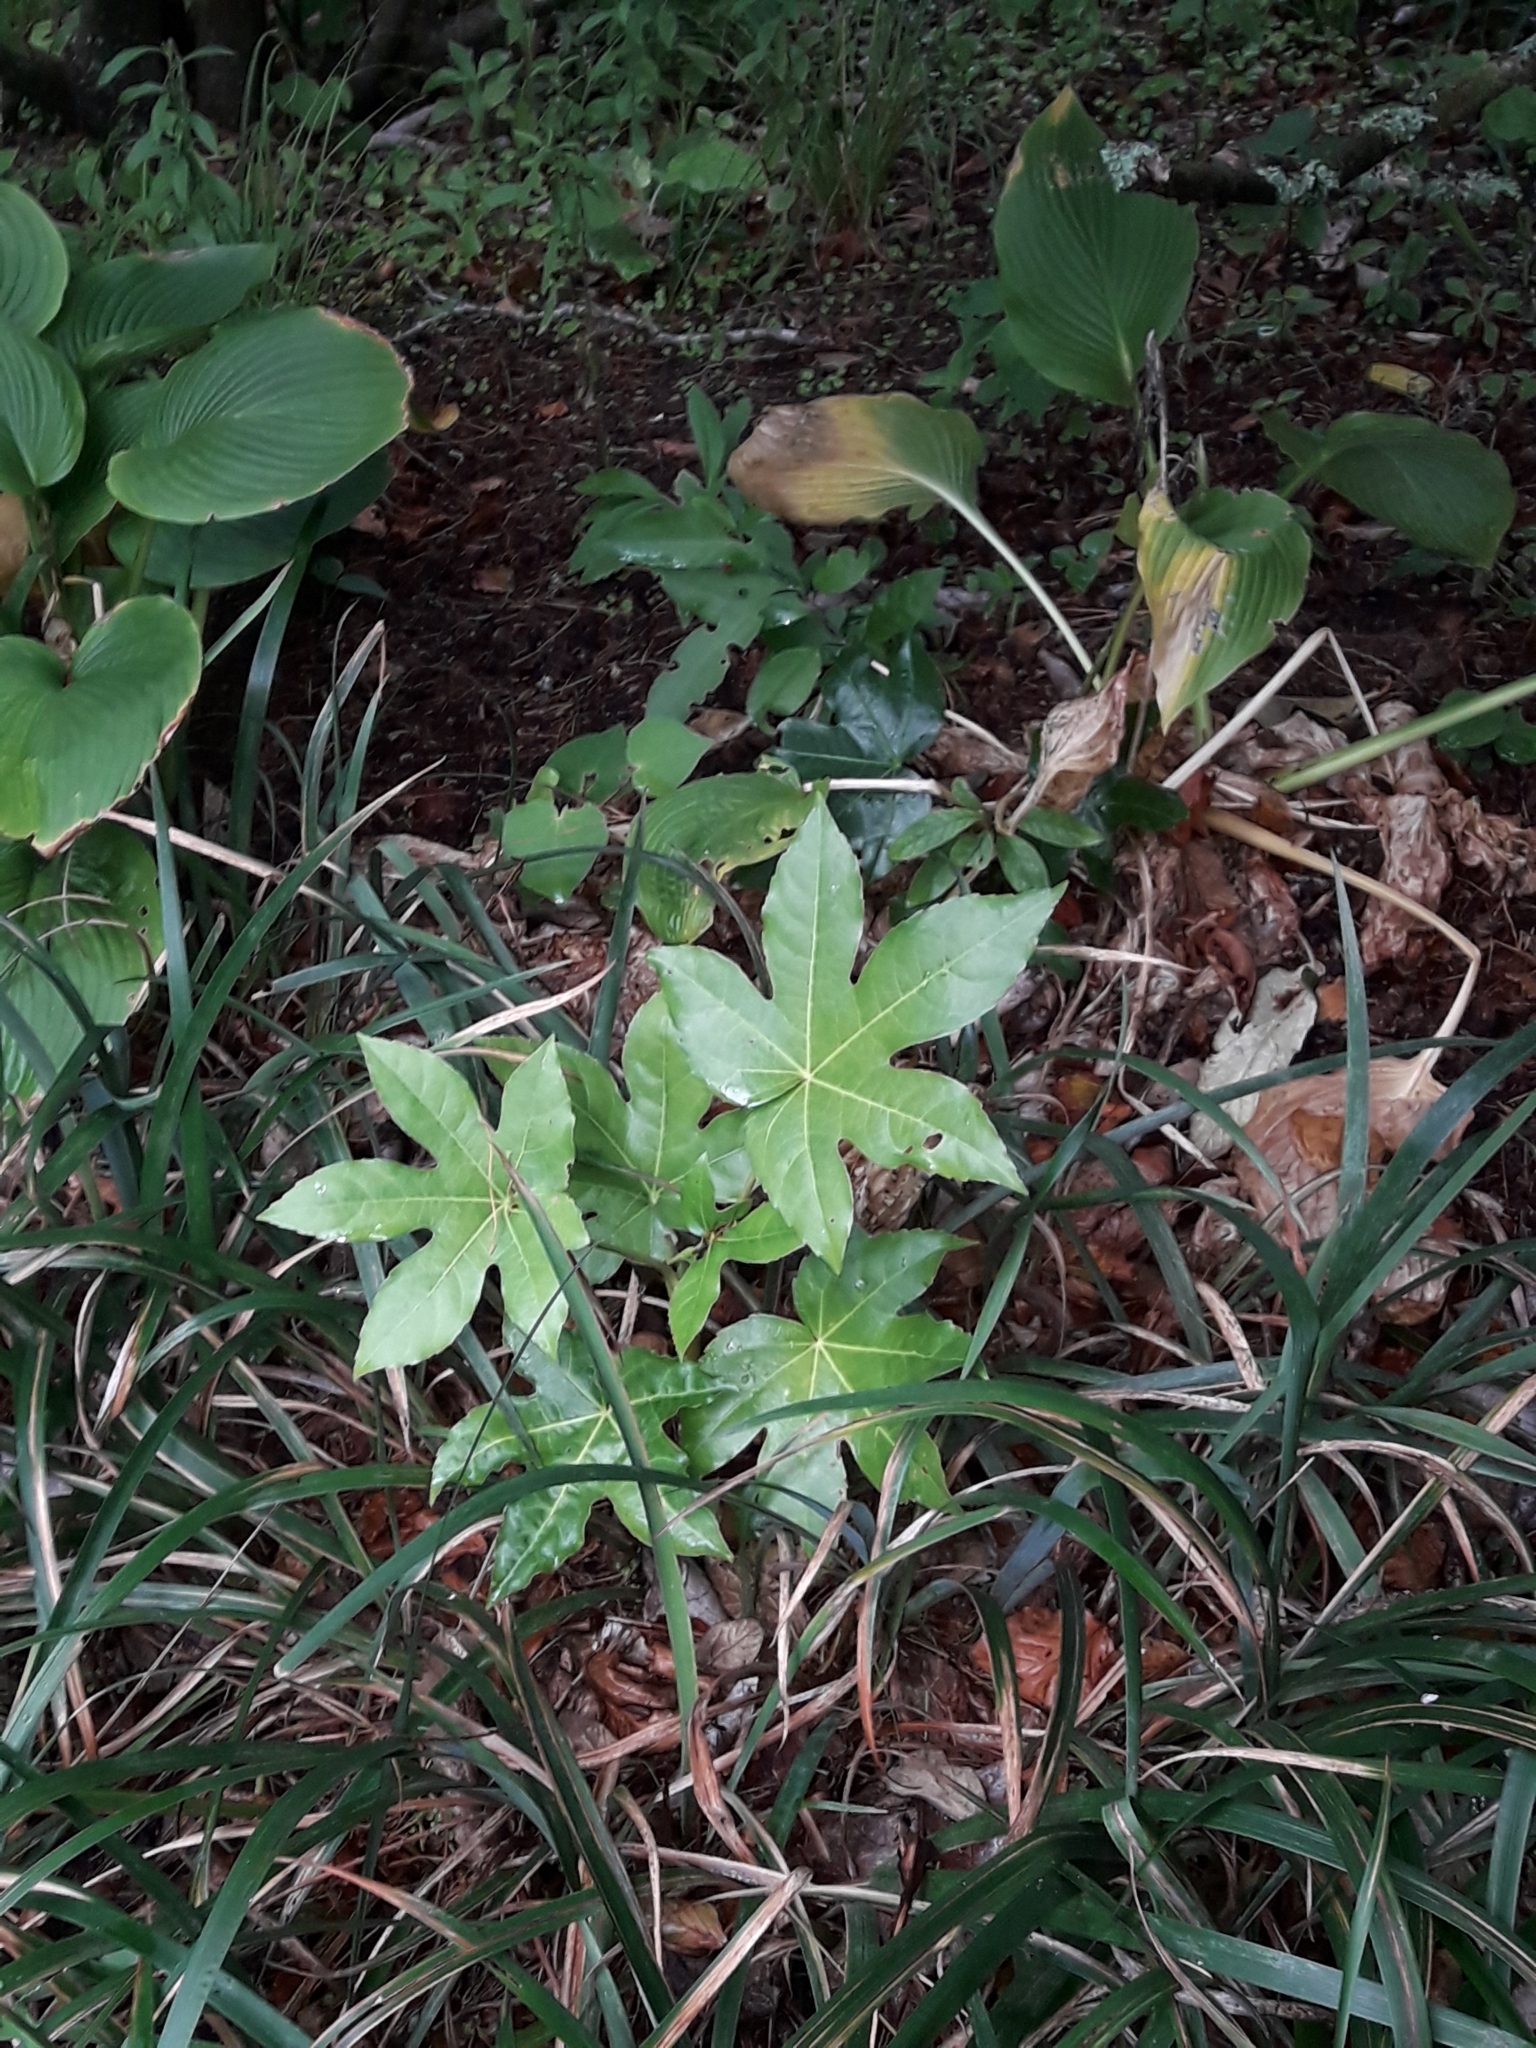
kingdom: Plantae
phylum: Tracheophyta
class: Magnoliopsida
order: Apiales
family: Araliaceae
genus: Fatsia
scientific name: Fatsia japonica
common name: Fatsia
